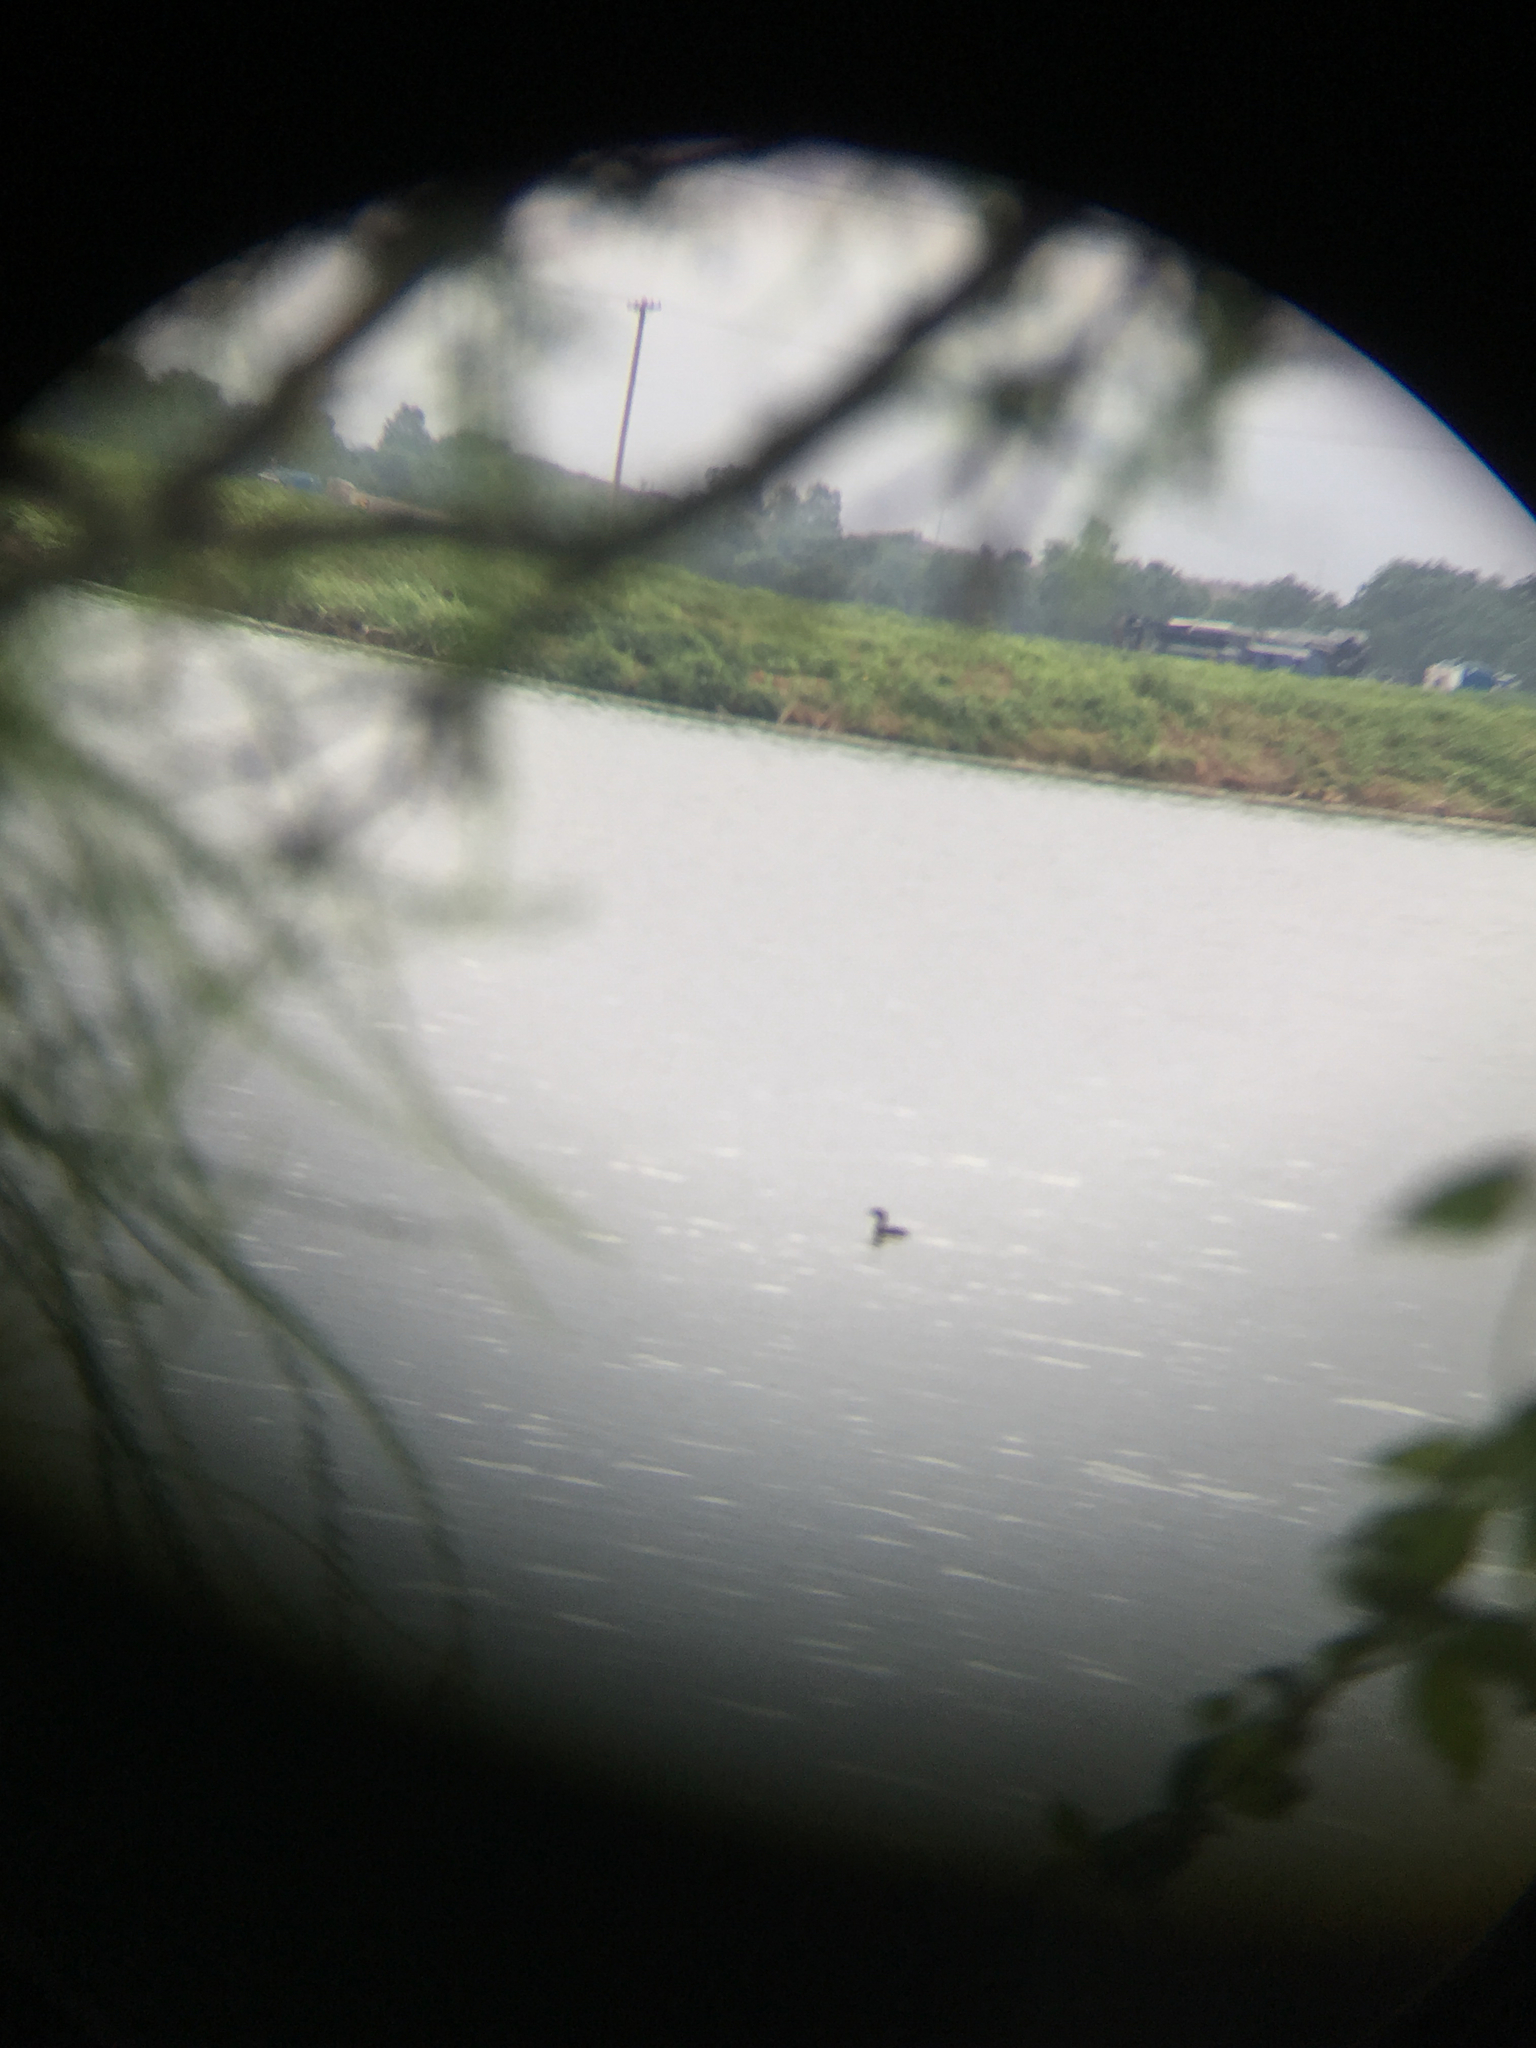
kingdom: Animalia
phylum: Chordata
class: Aves
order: Podicipediformes
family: Podicipedidae
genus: Podilymbus
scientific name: Podilymbus podiceps
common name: Pied-billed grebe
